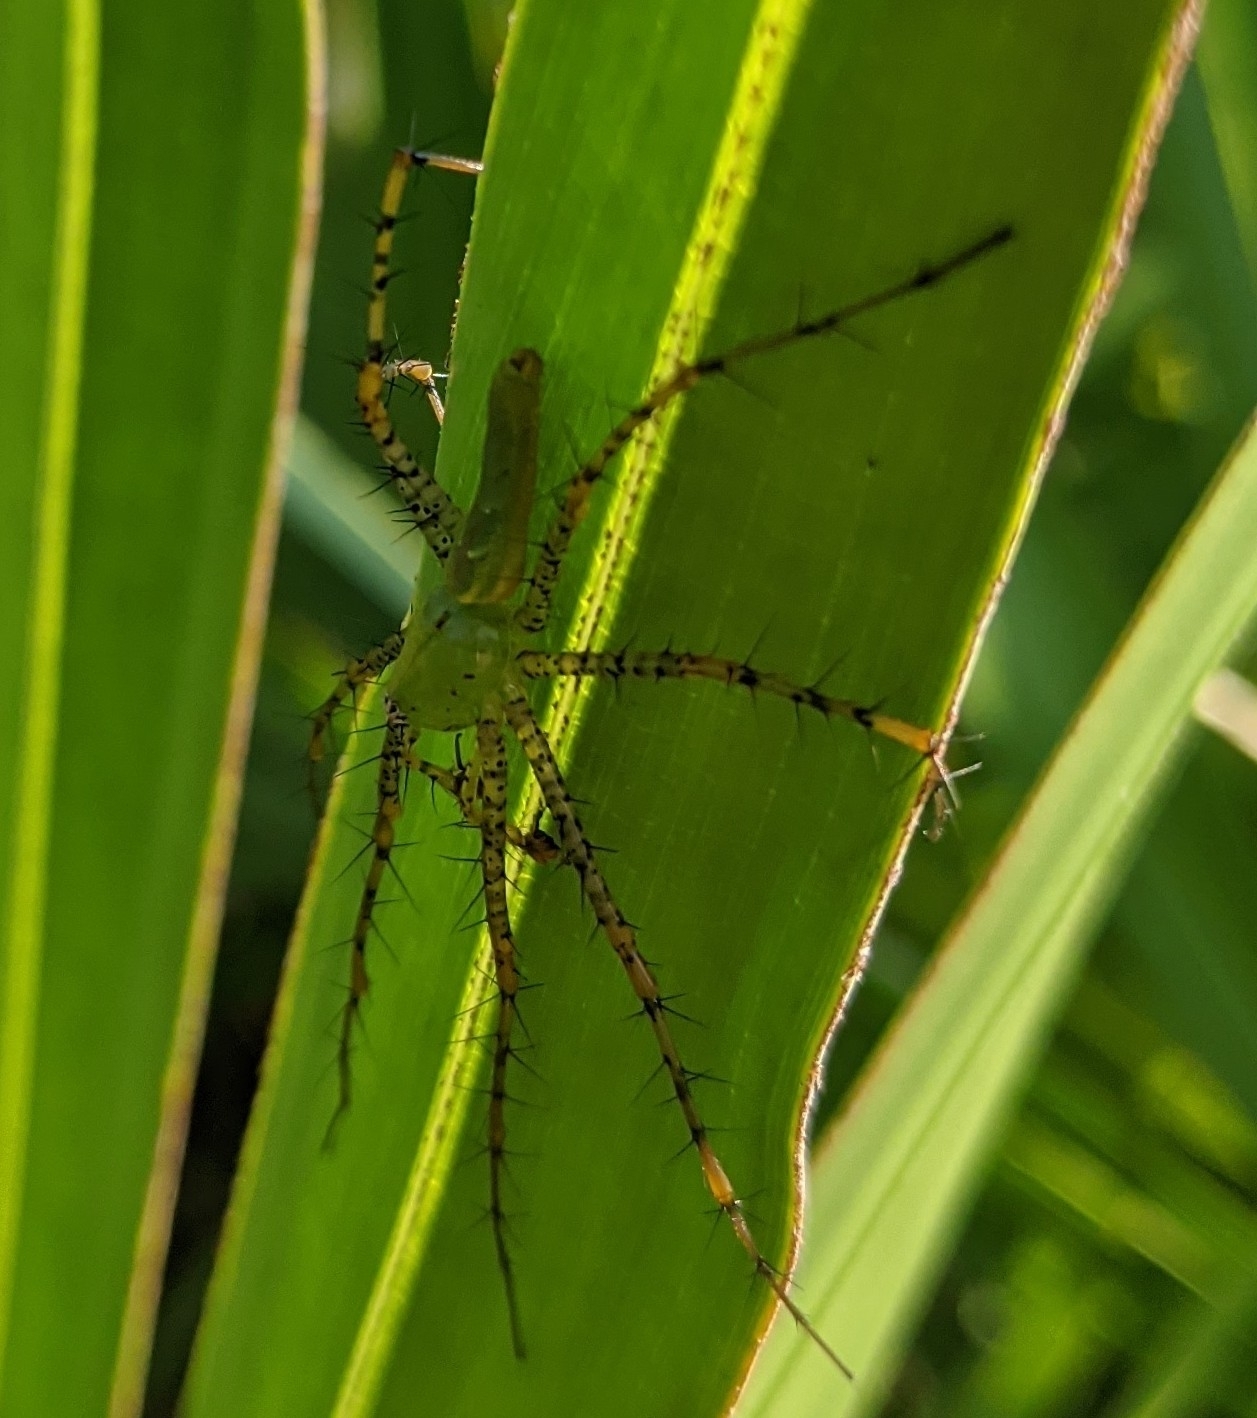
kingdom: Animalia
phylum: Arthropoda
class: Arachnida
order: Araneae
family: Oxyopidae
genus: Peucetia
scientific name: Peucetia viridans
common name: Lynx spiders
